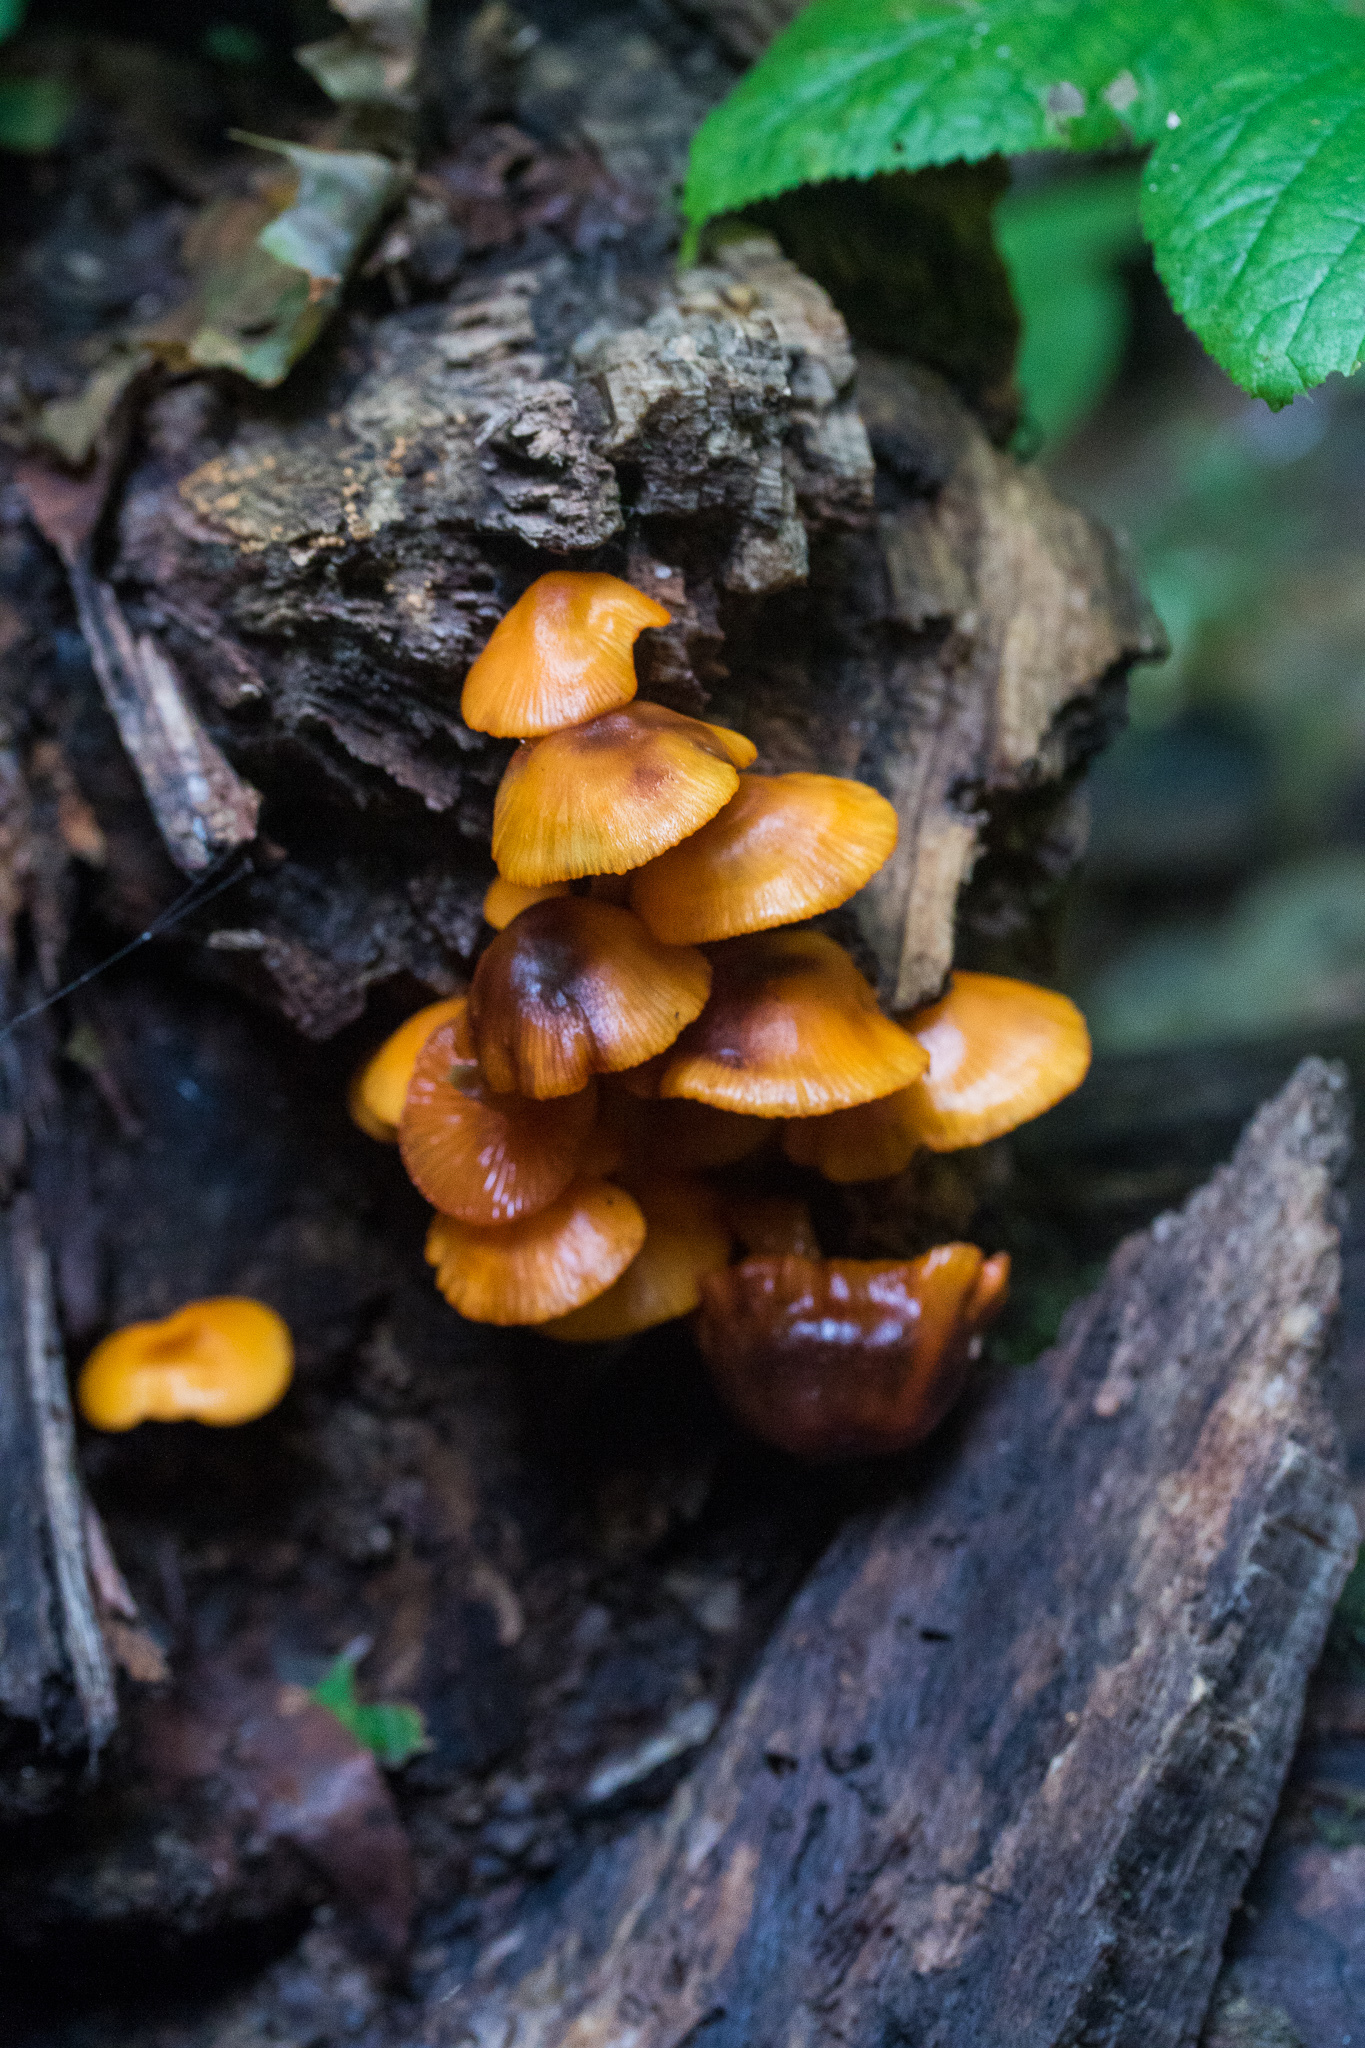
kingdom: Fungi
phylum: Basidiomycota
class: Agaricomycetes
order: Agaricales
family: Mycenaceae
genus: Mycena
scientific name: Mycena leaiana
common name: Orange mycena
